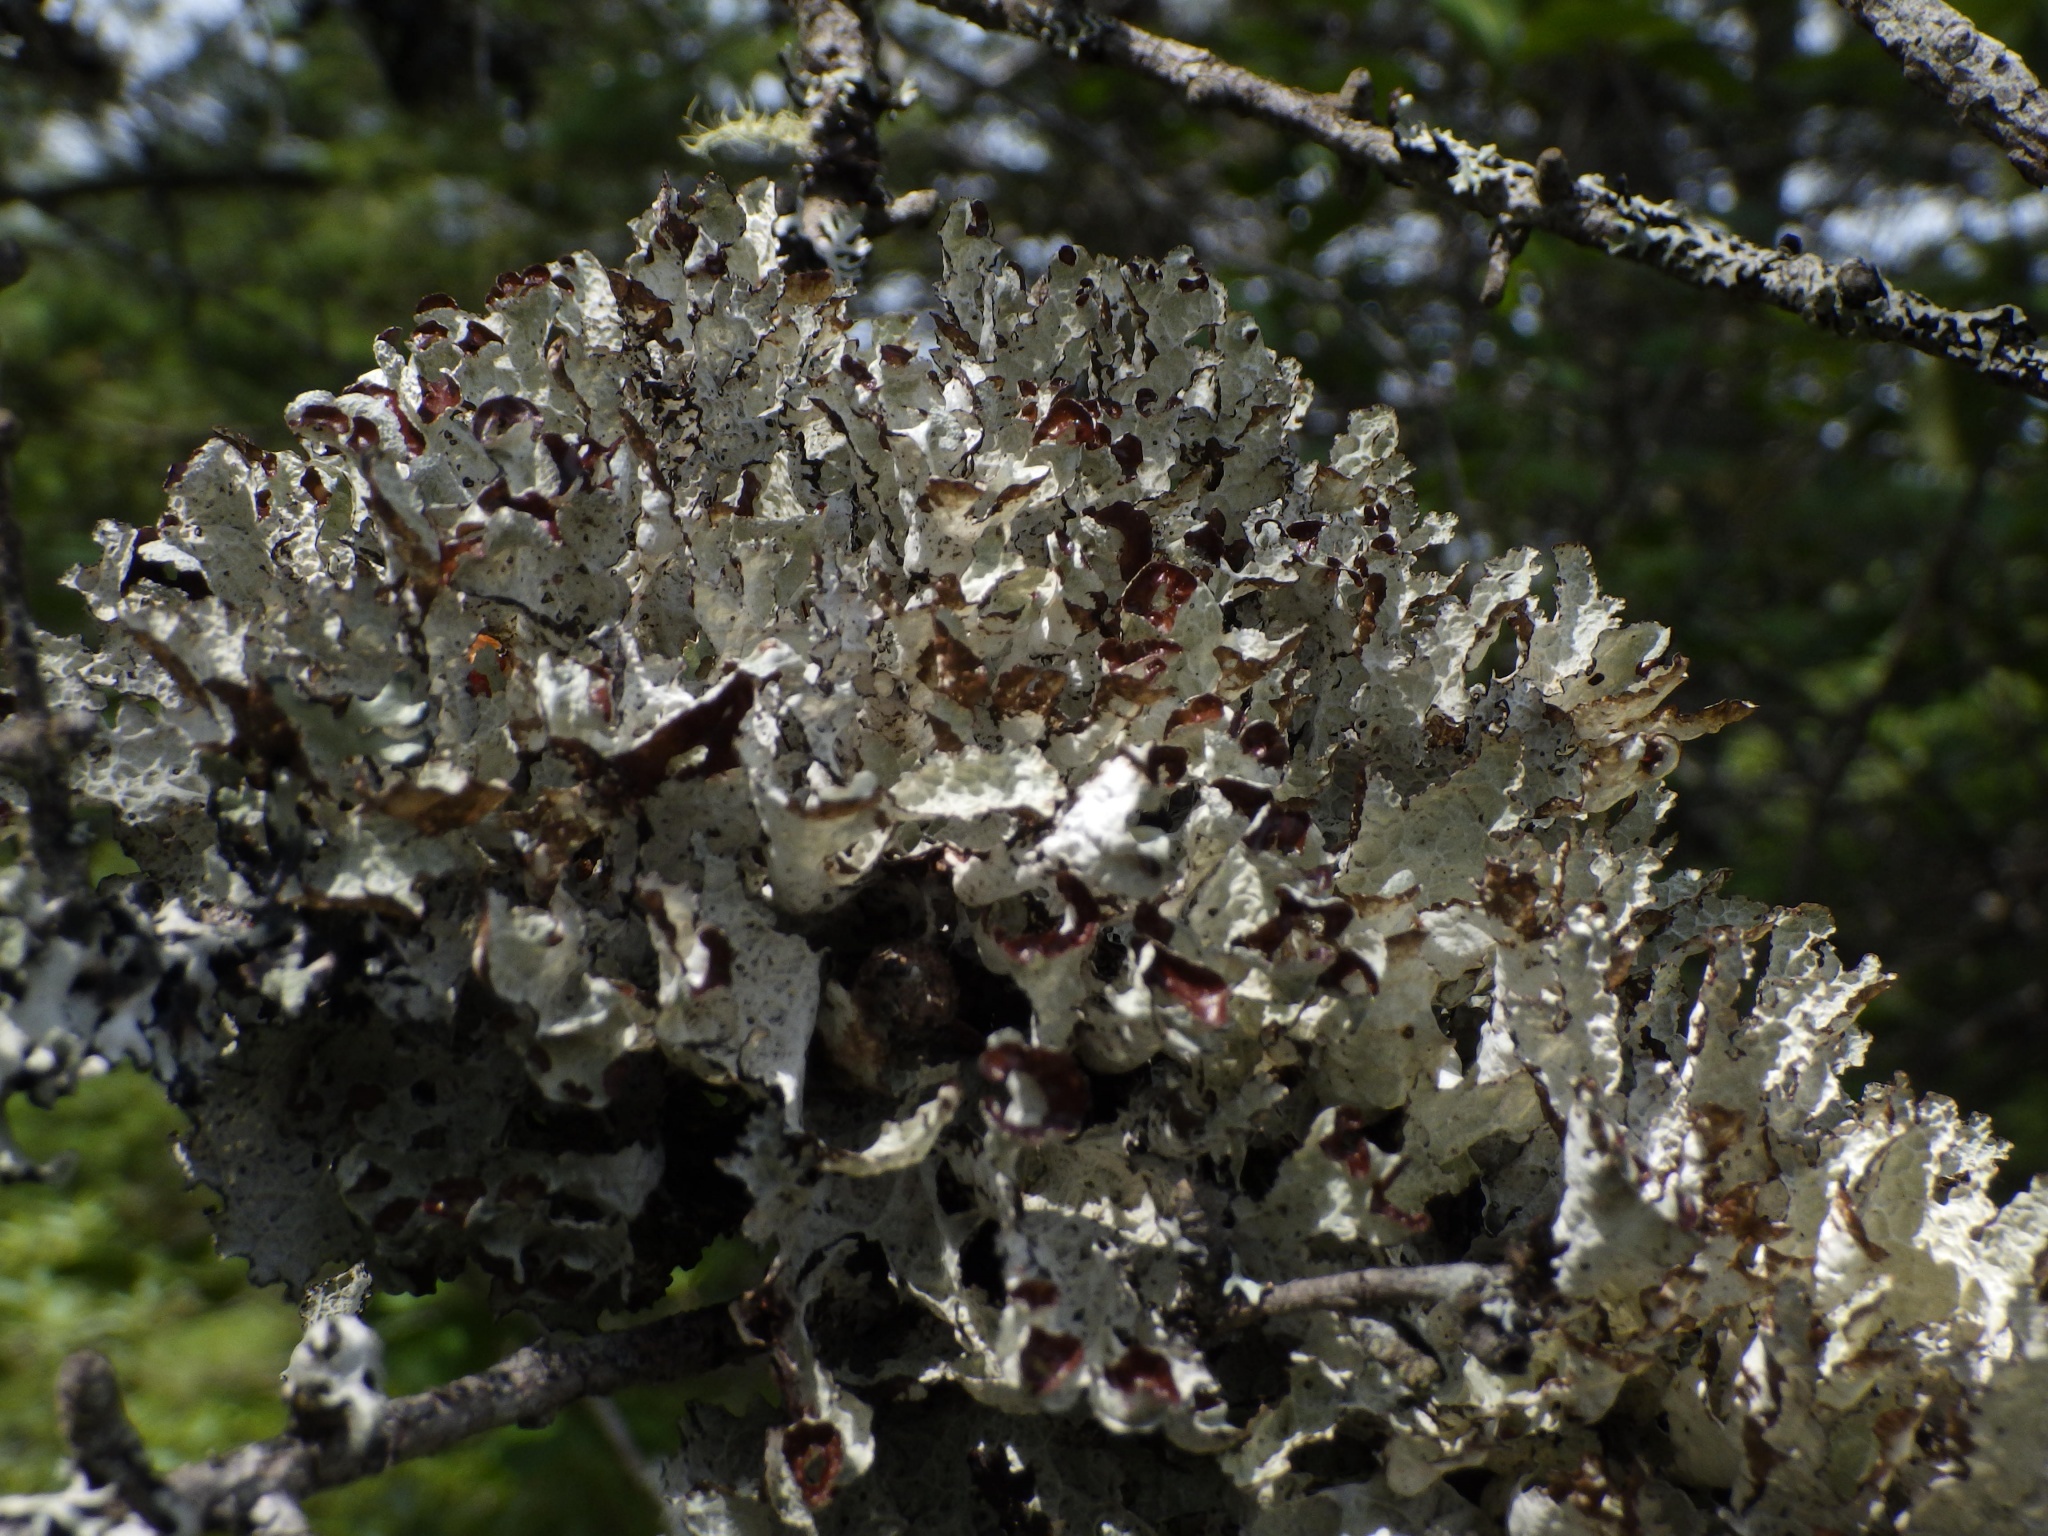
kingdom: Fungi
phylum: Ascomycota
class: Lecanoromycetes
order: Lecanorales
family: Parmeliaceae
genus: Platismatia
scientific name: Platismatia tuckermanii
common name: Crumpled rag lichen
